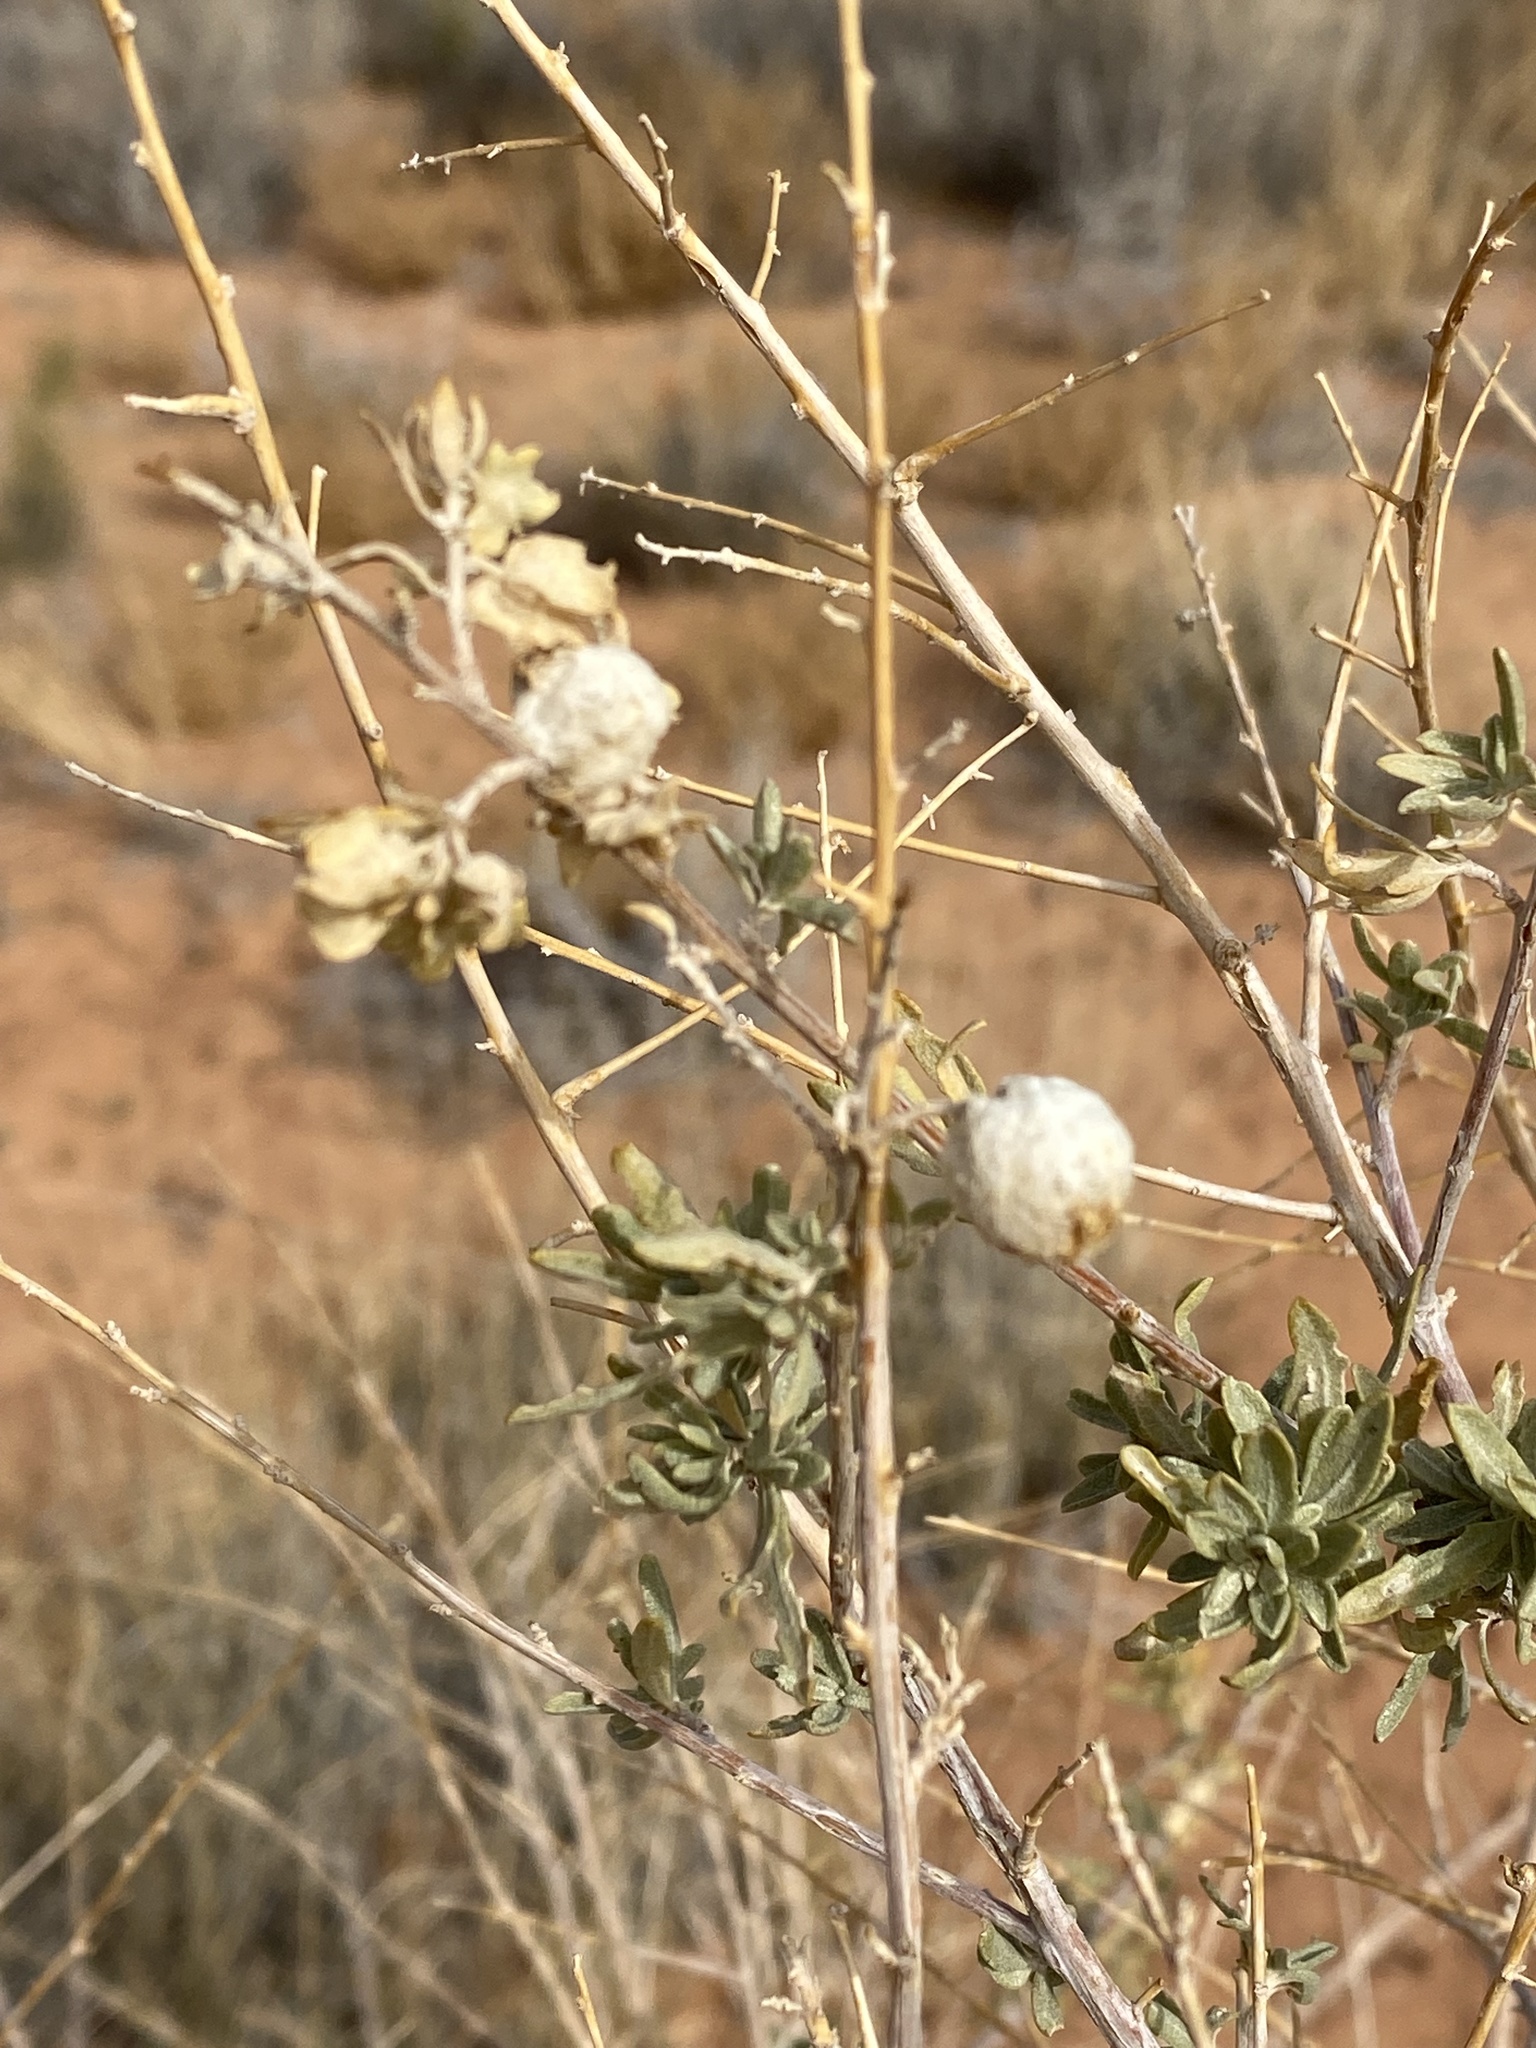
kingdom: Animalia
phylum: Arthropoda
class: Insecta
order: Diptera
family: Cecidomyiidae
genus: Asphondylia
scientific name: Asphondylia neomexicana
